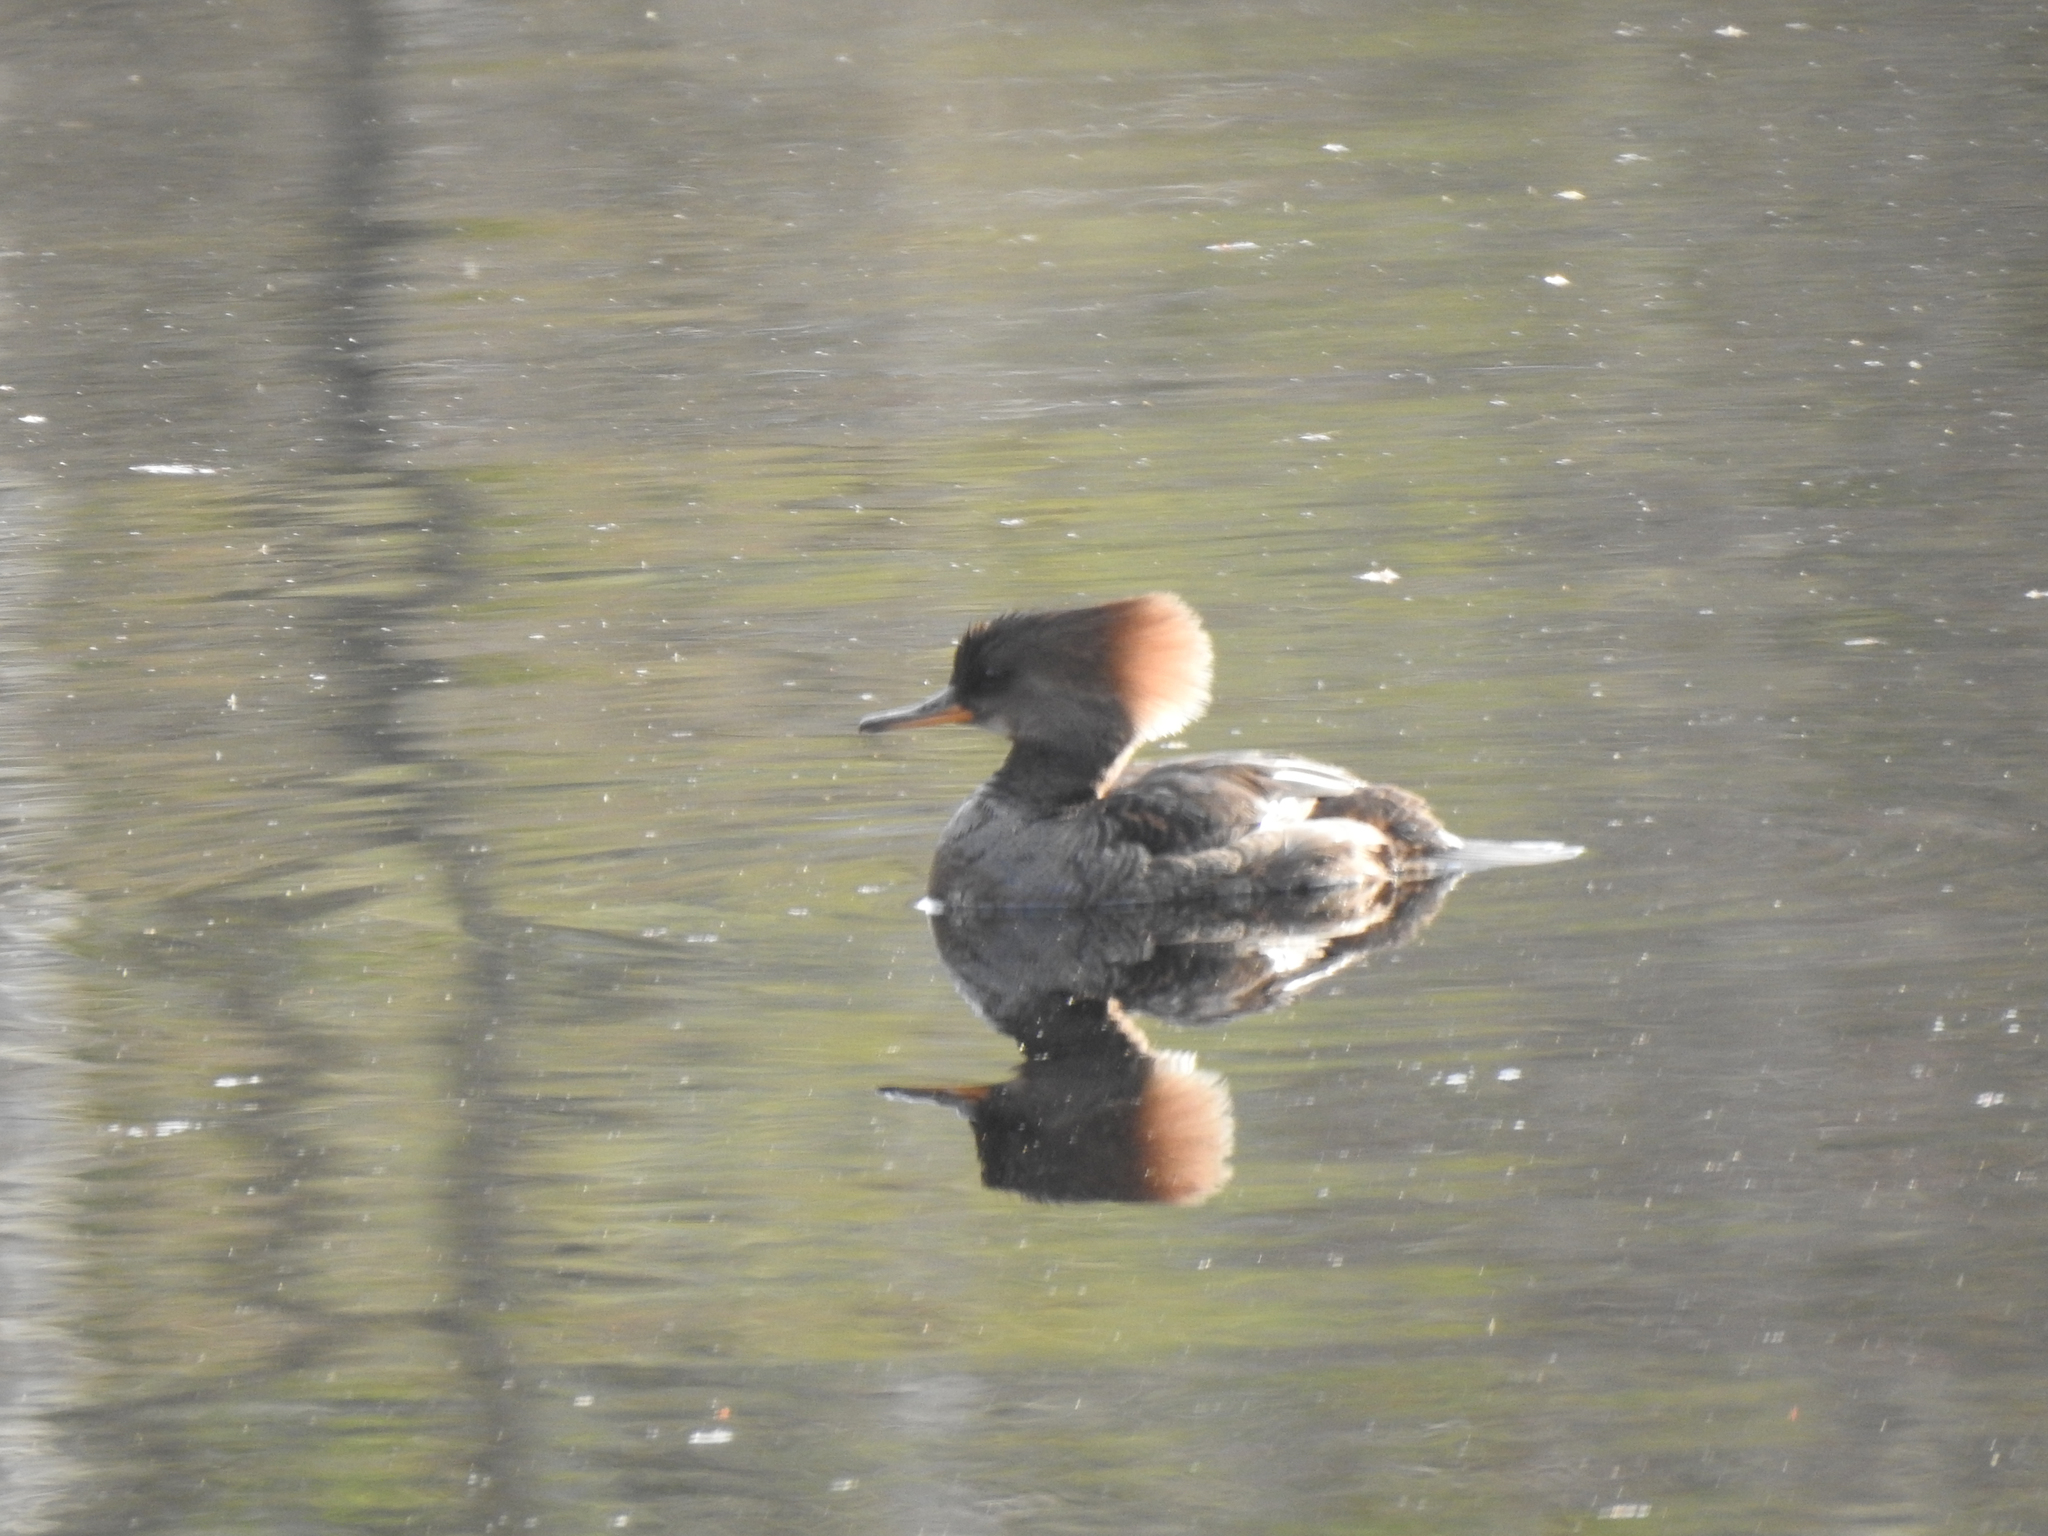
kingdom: Animalia
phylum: Chordata
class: Aves
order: Anseriformes
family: Anatidae
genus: Lophodytes
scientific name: Lophodytes cucullatus
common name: Hooded merganser
